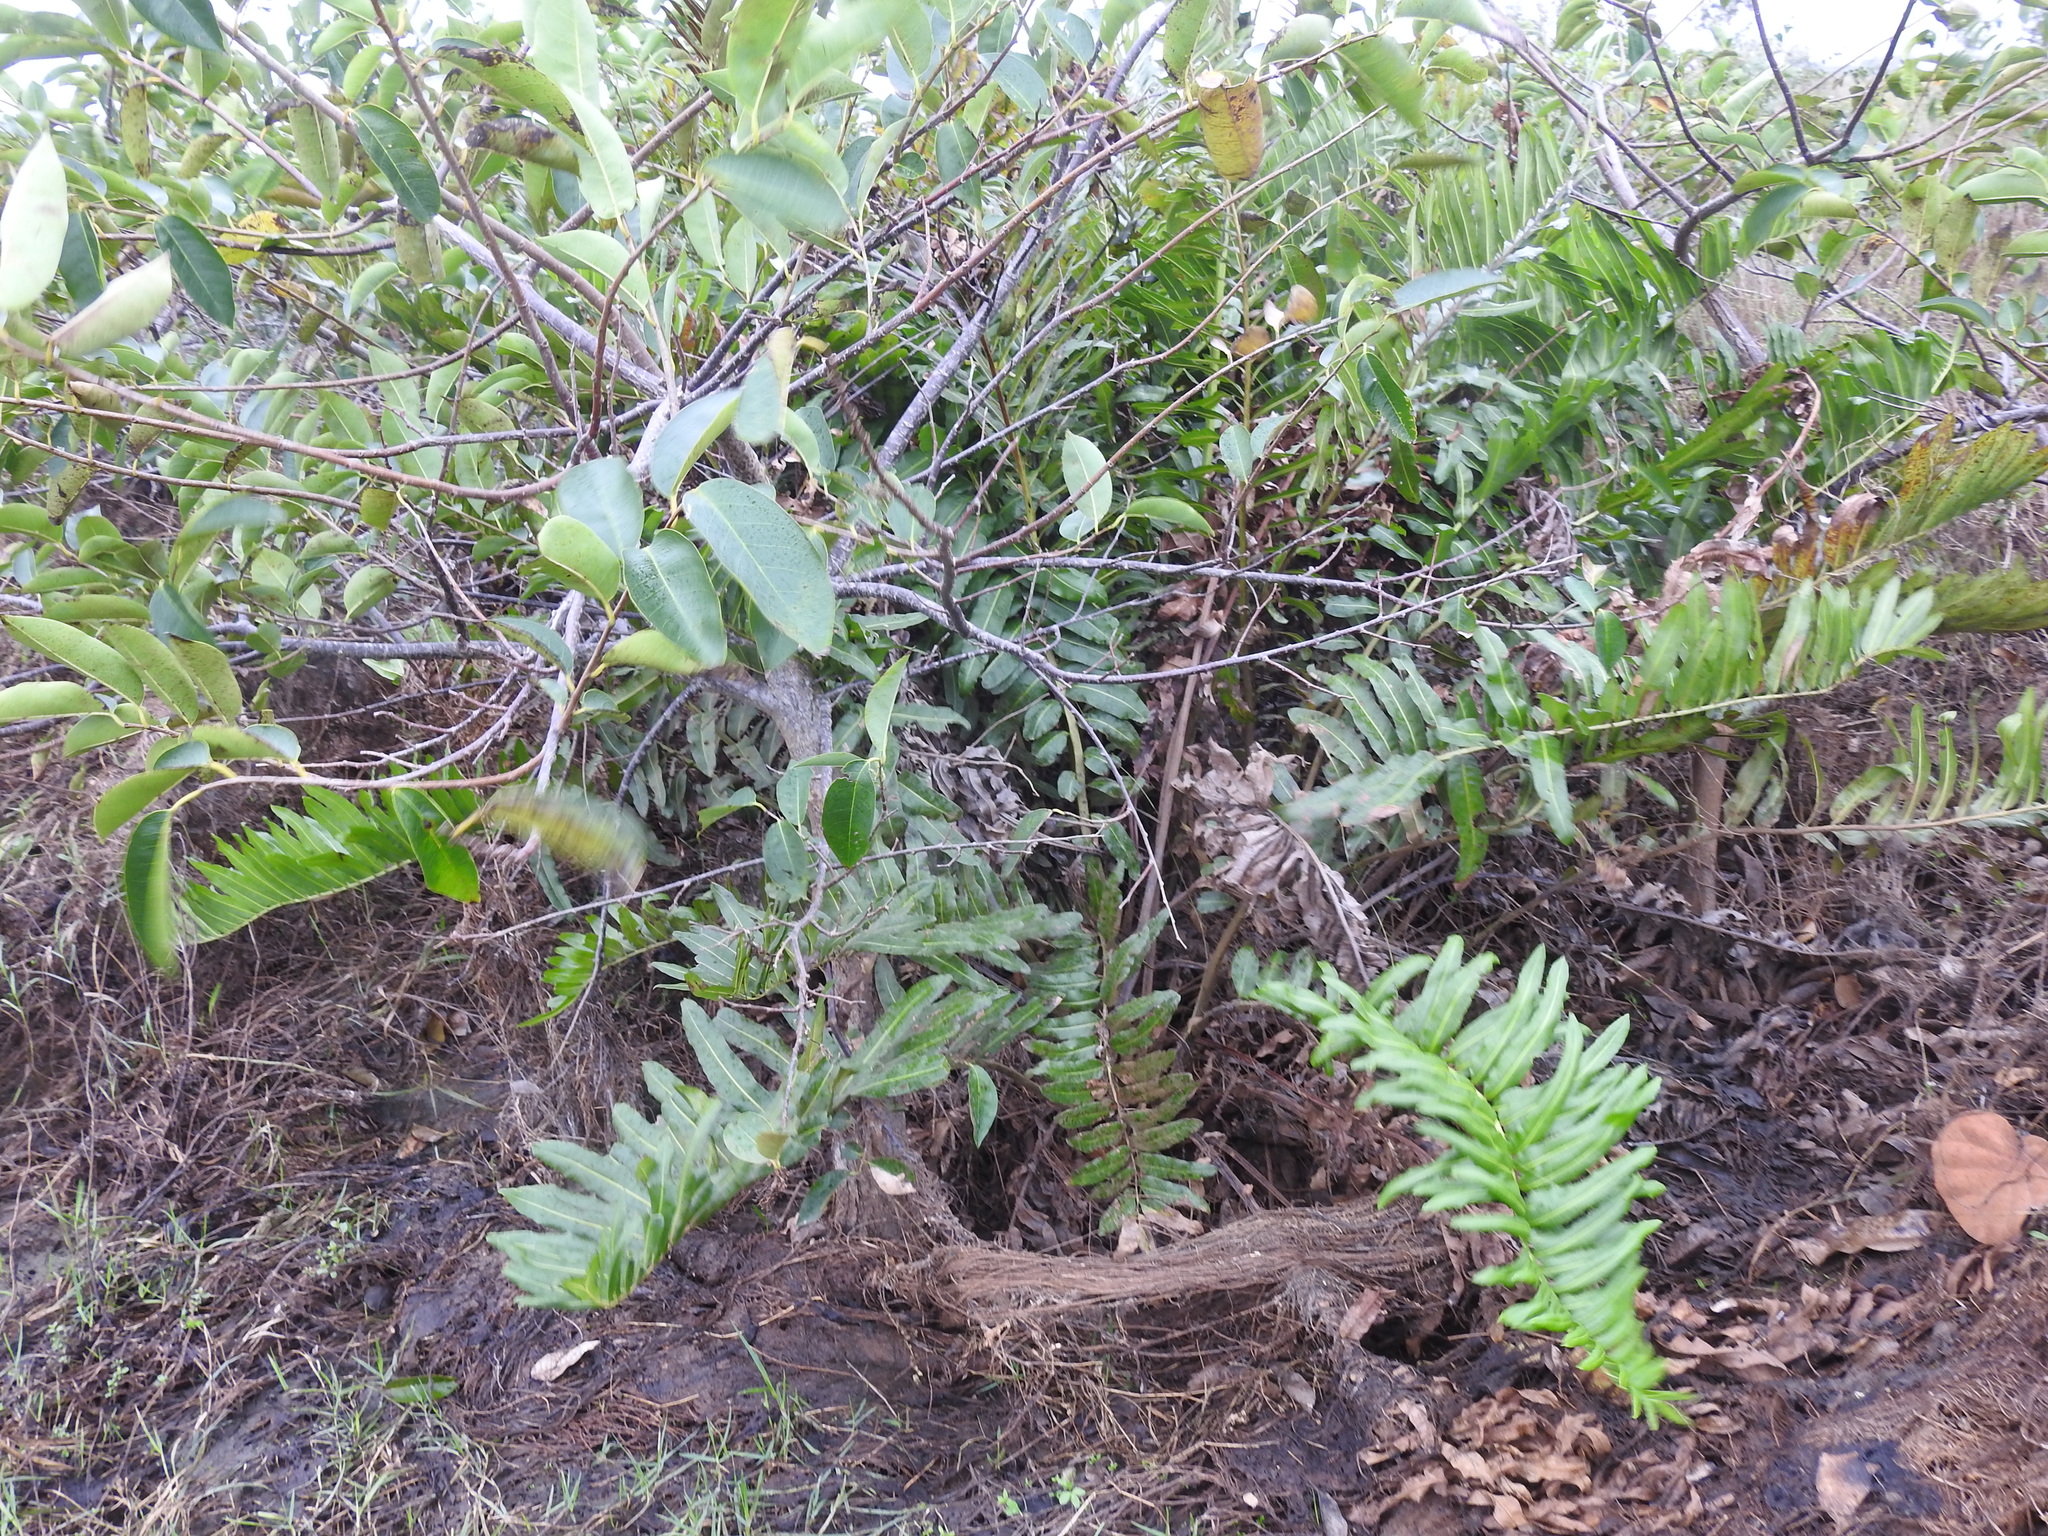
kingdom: Plantae
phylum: Tracheophyta
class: Polypodiopsida
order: Polypodiales
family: Pteridaceae
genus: Acrostichum
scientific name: Acrostichum danaeifolium
